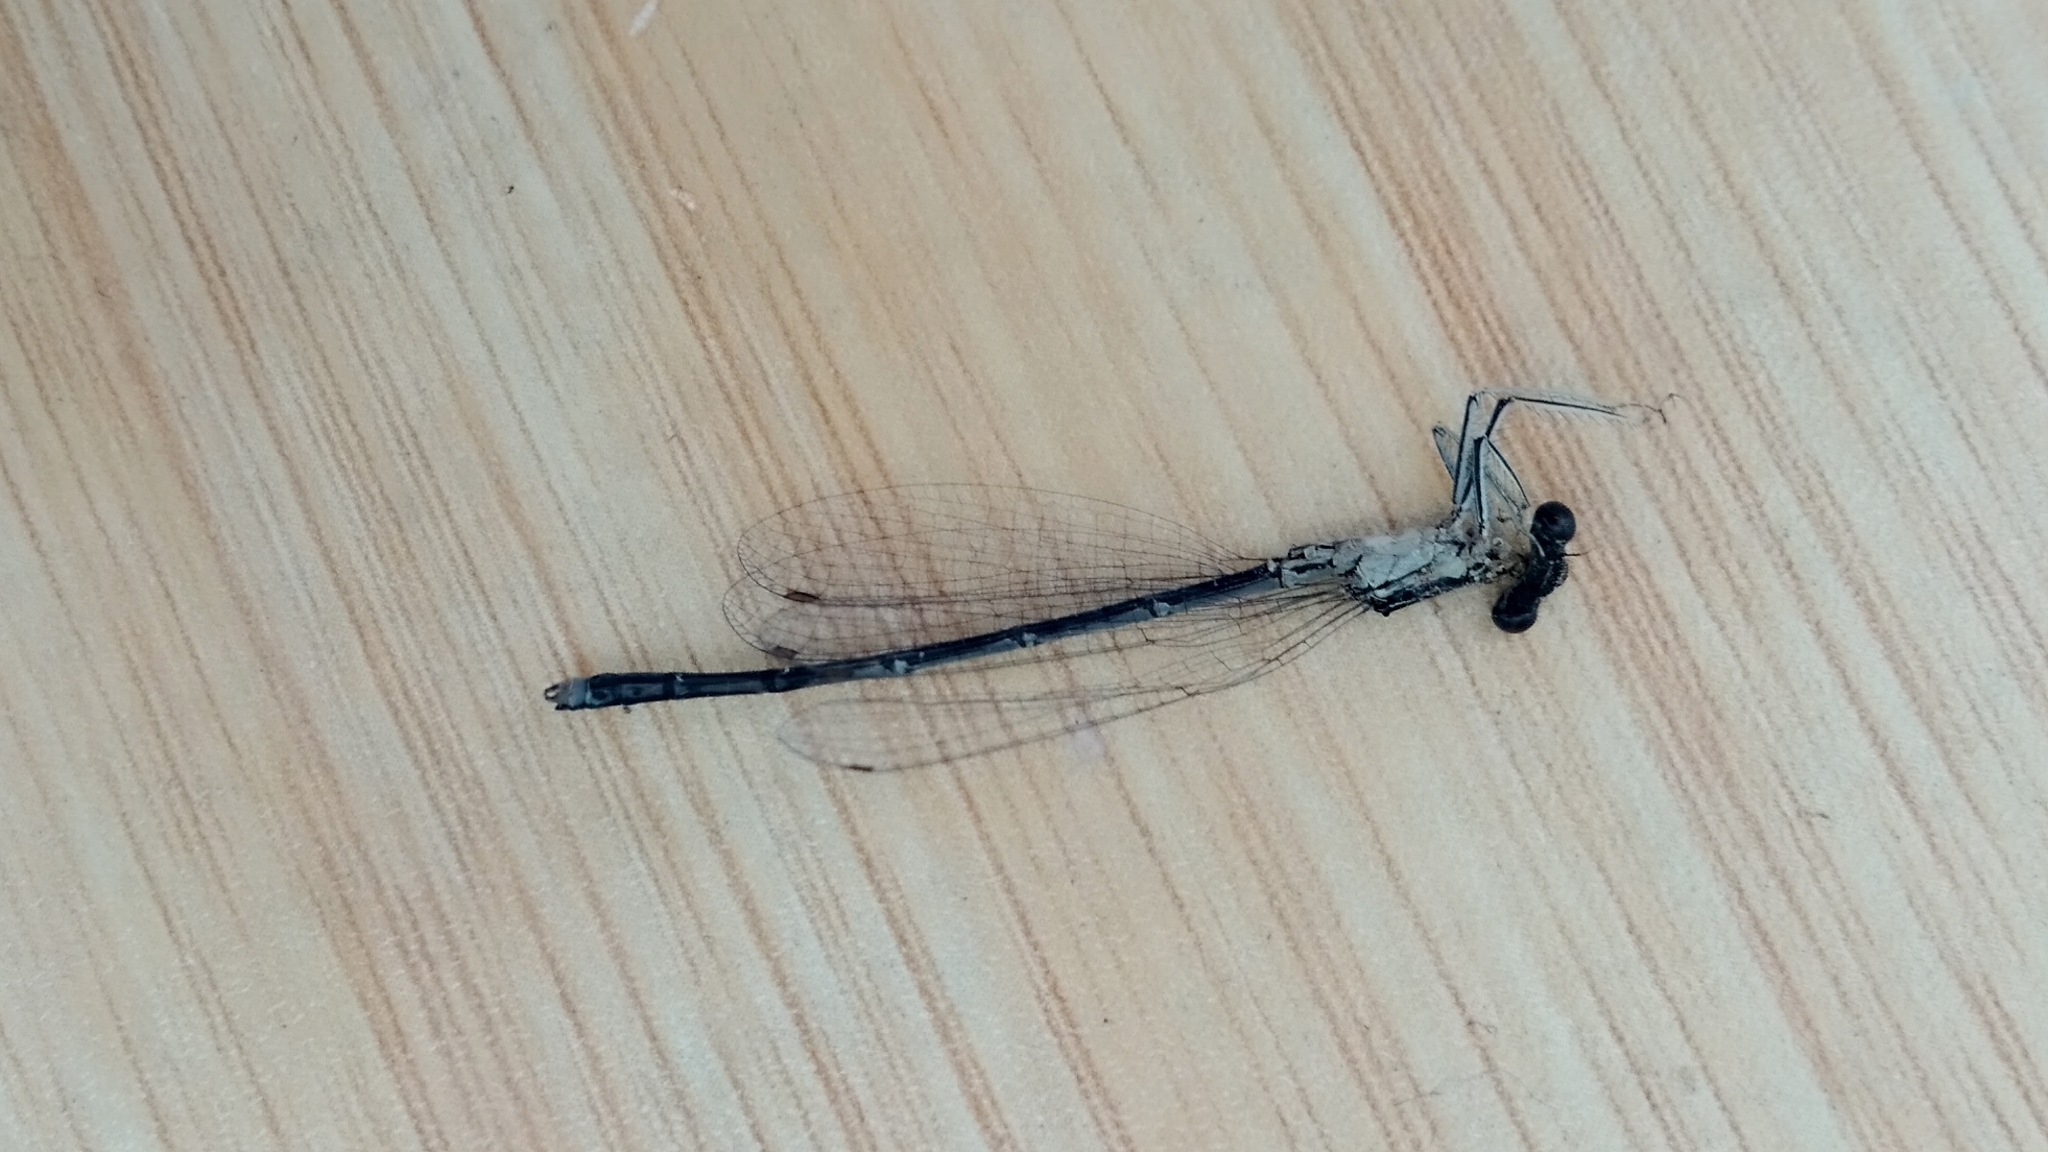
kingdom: Animalia
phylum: Arthropoda
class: Insecta
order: Odonata
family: Platycnemididae
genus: Platycnemis
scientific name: Platycnemis pennipes
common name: White-legged damselfly
